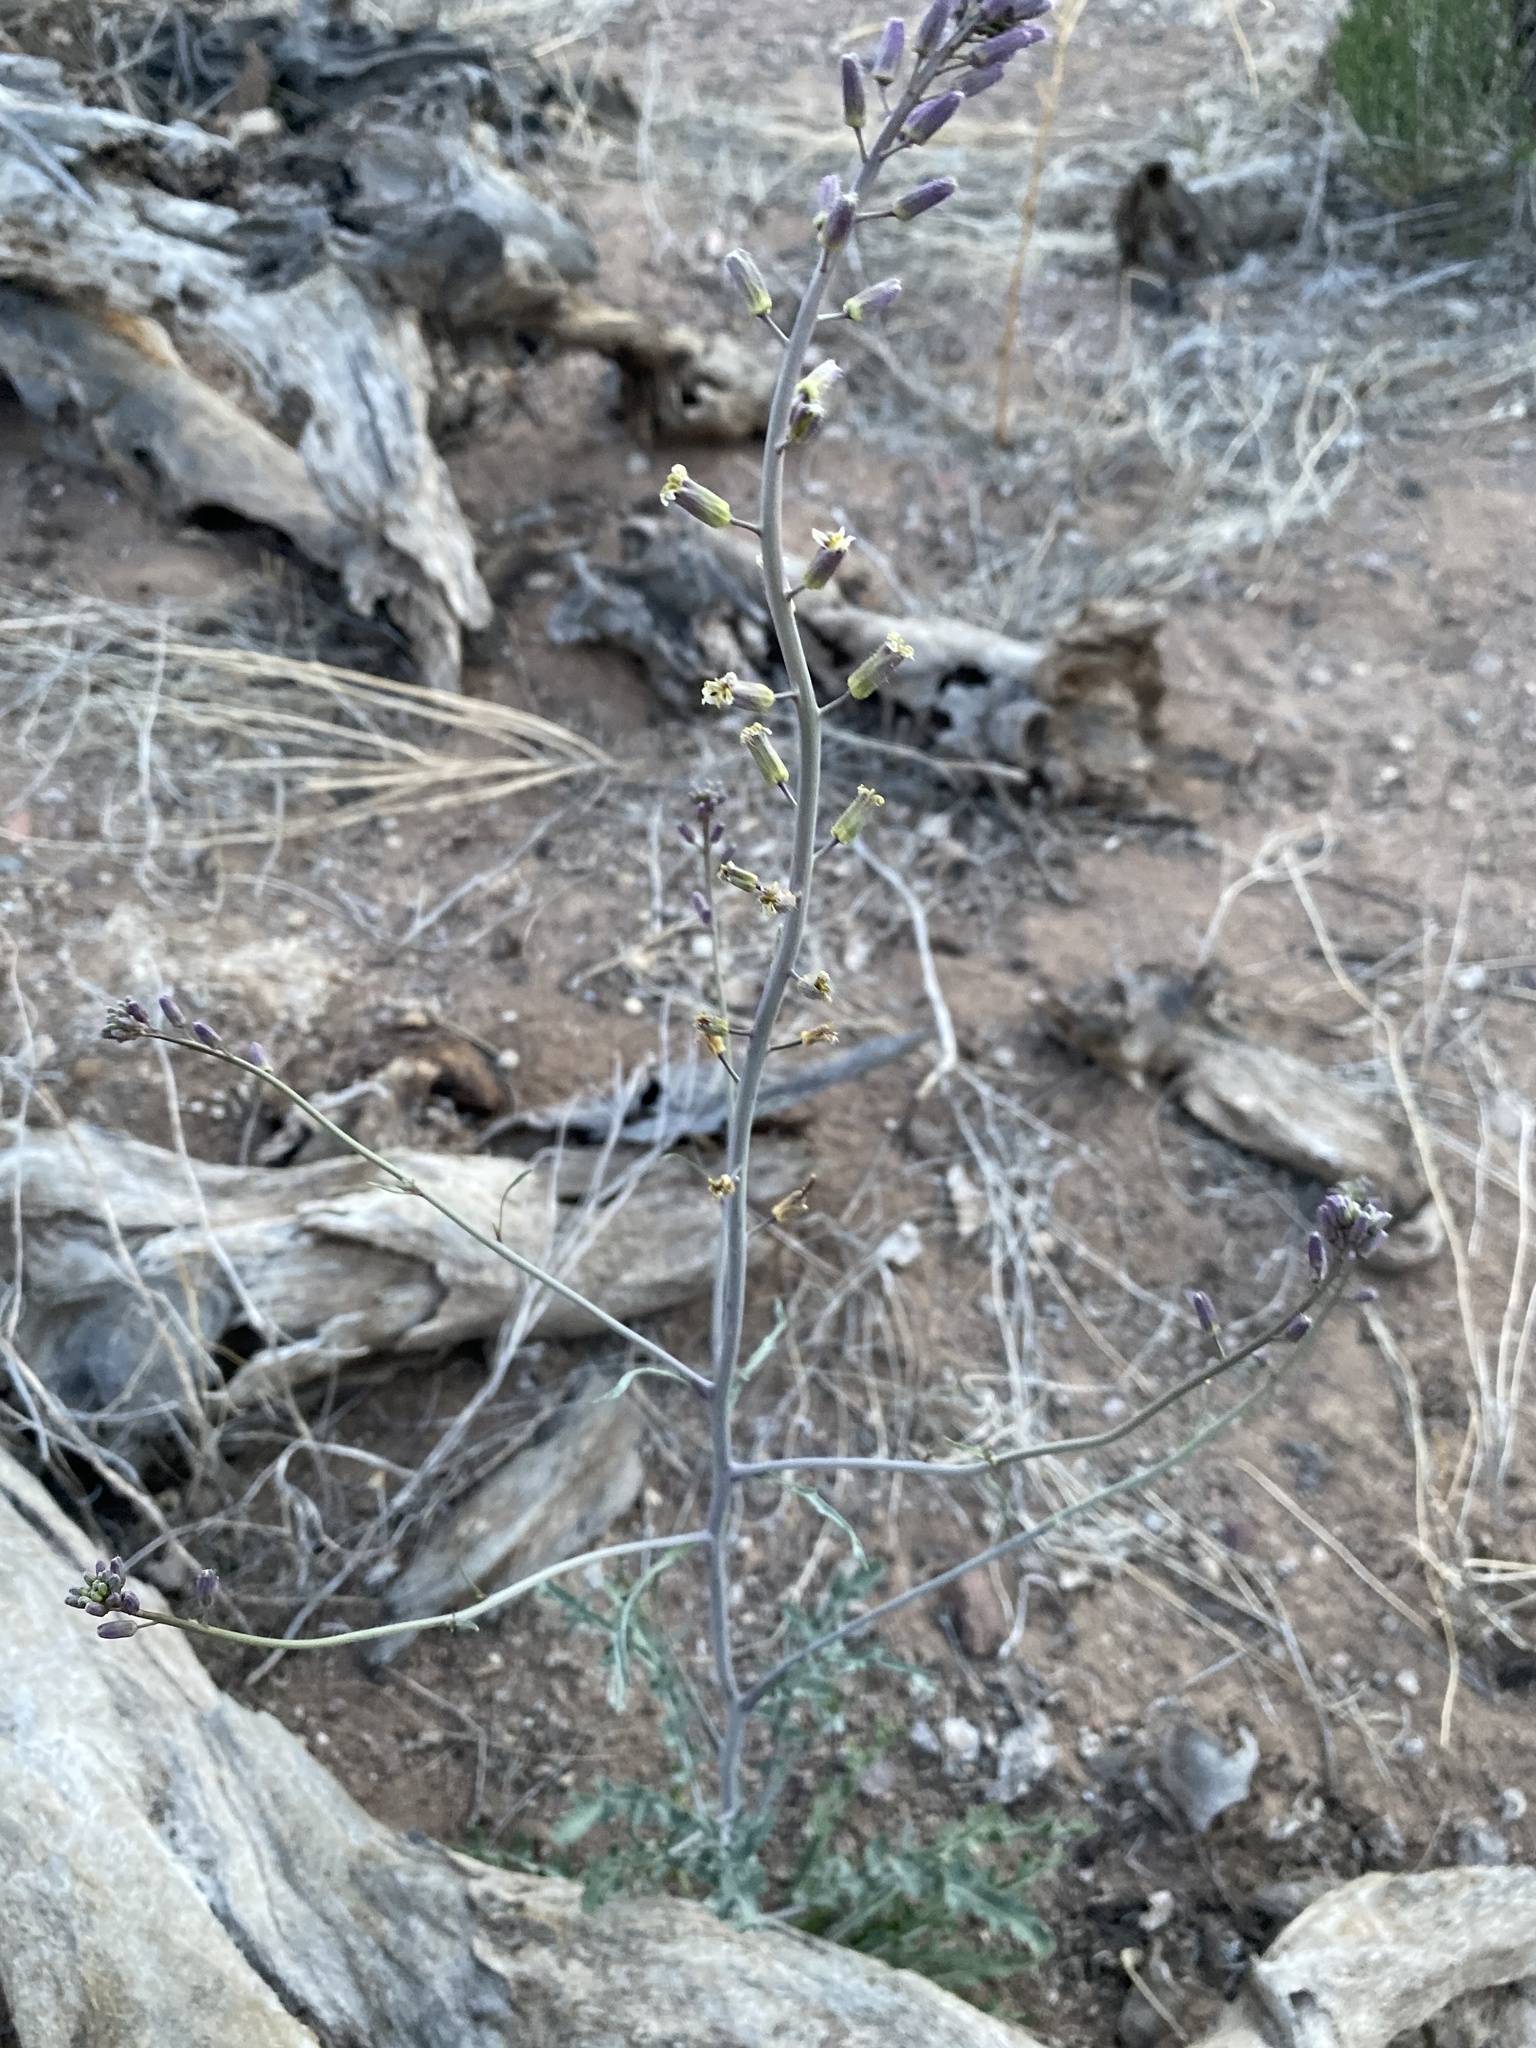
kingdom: Plantae
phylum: Tracheophyta
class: Magnoliopsida
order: Brassicales
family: Brassicaceae
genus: Streptanthus
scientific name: Streptanthus pilosus
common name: Chocolate drops
